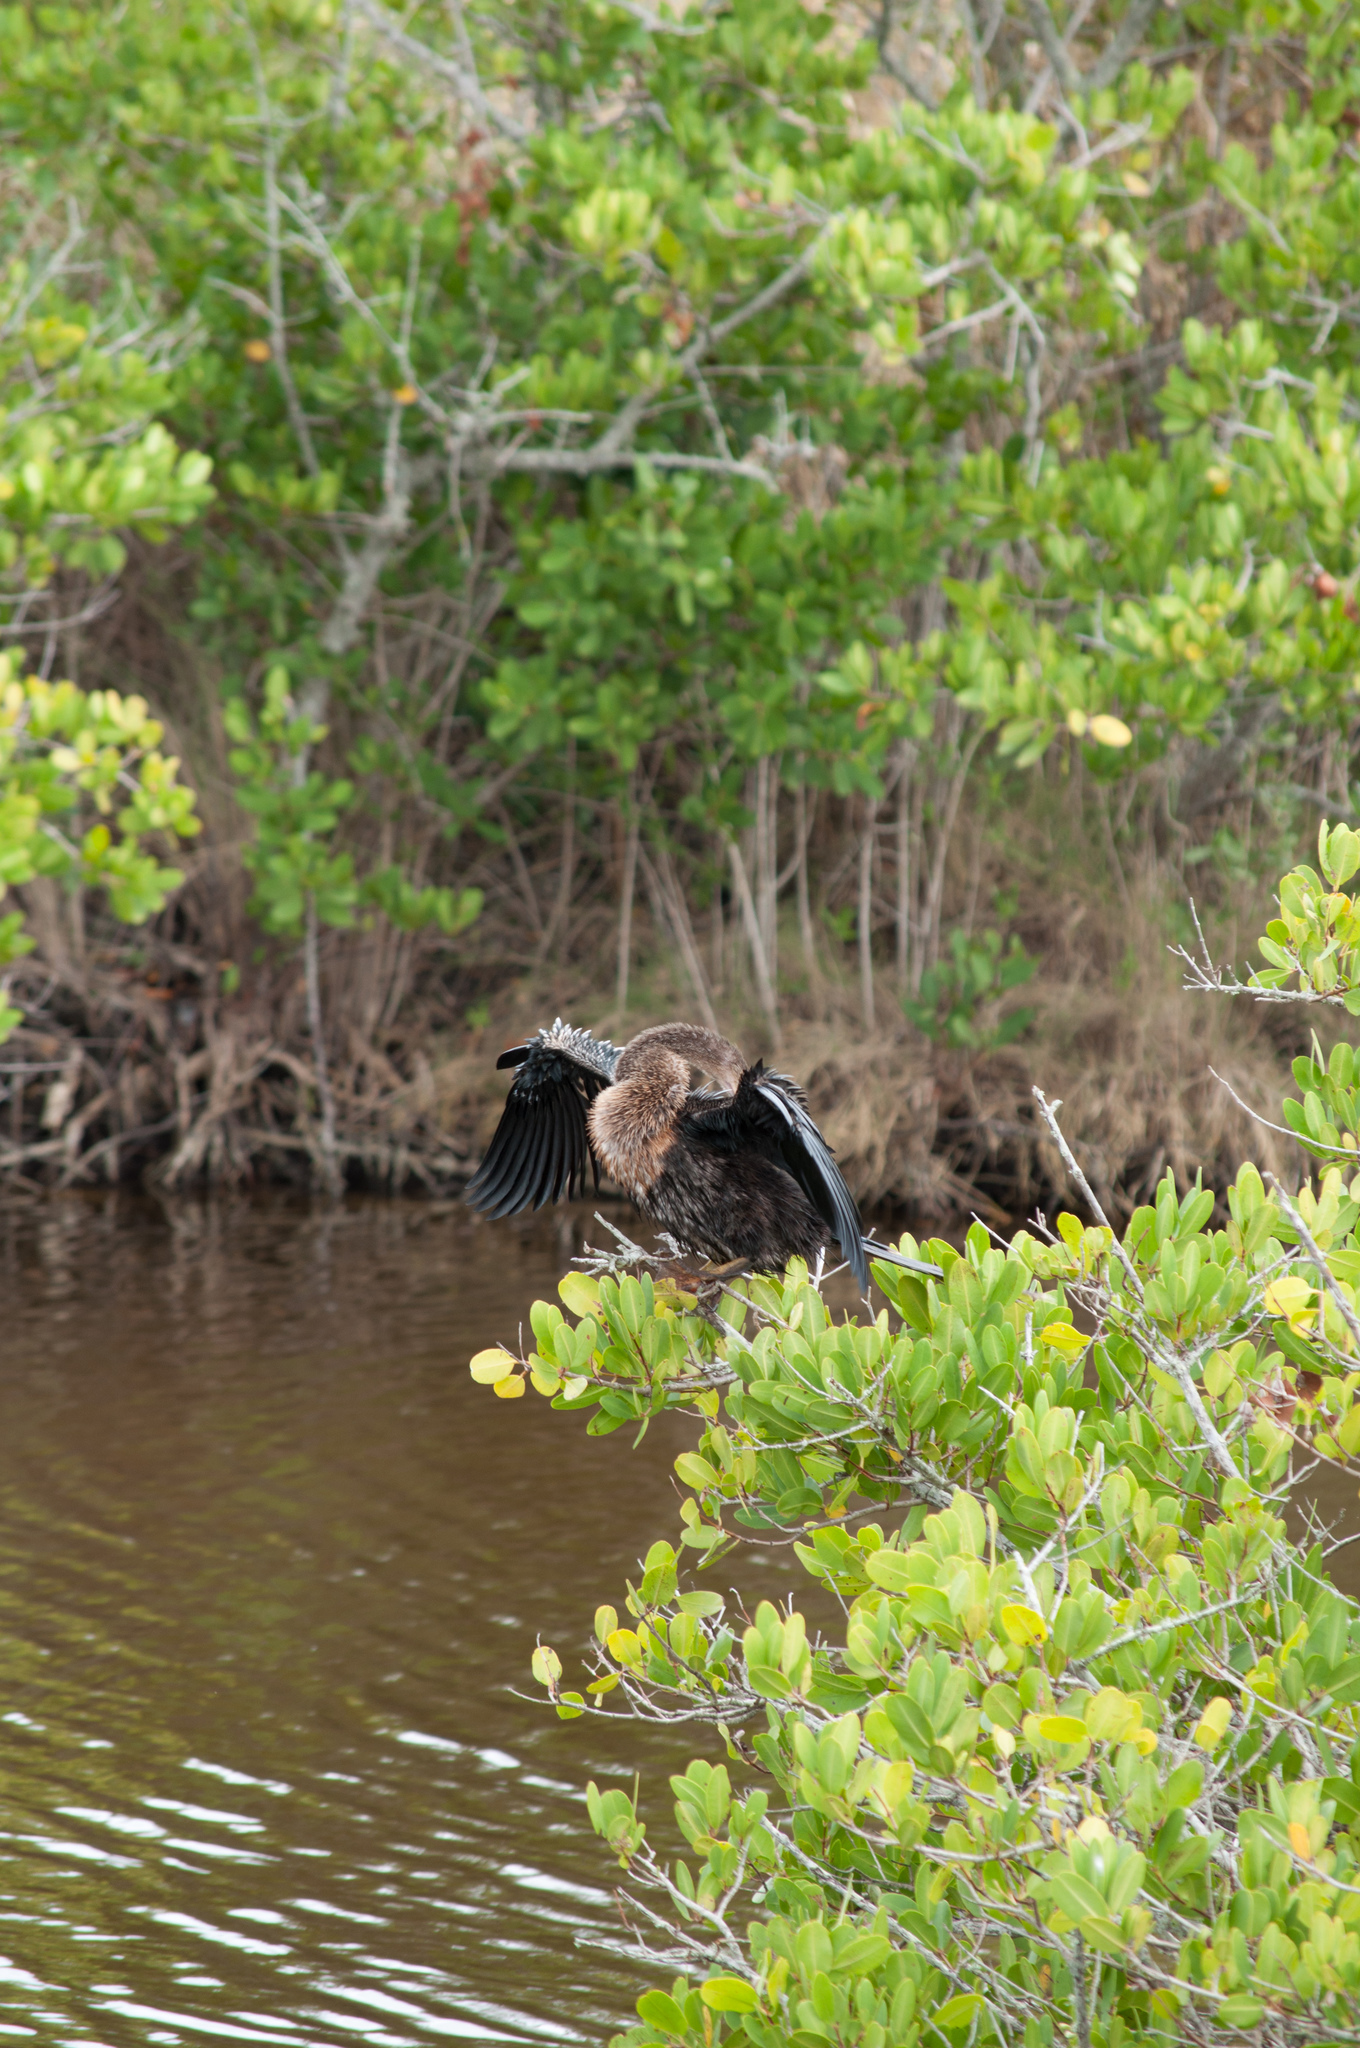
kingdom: Animalia
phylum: Chordata
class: Aves
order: Suliformes
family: Anhingidae
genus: Anhinga
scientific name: Anhinga anhinga
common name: Anhinga
